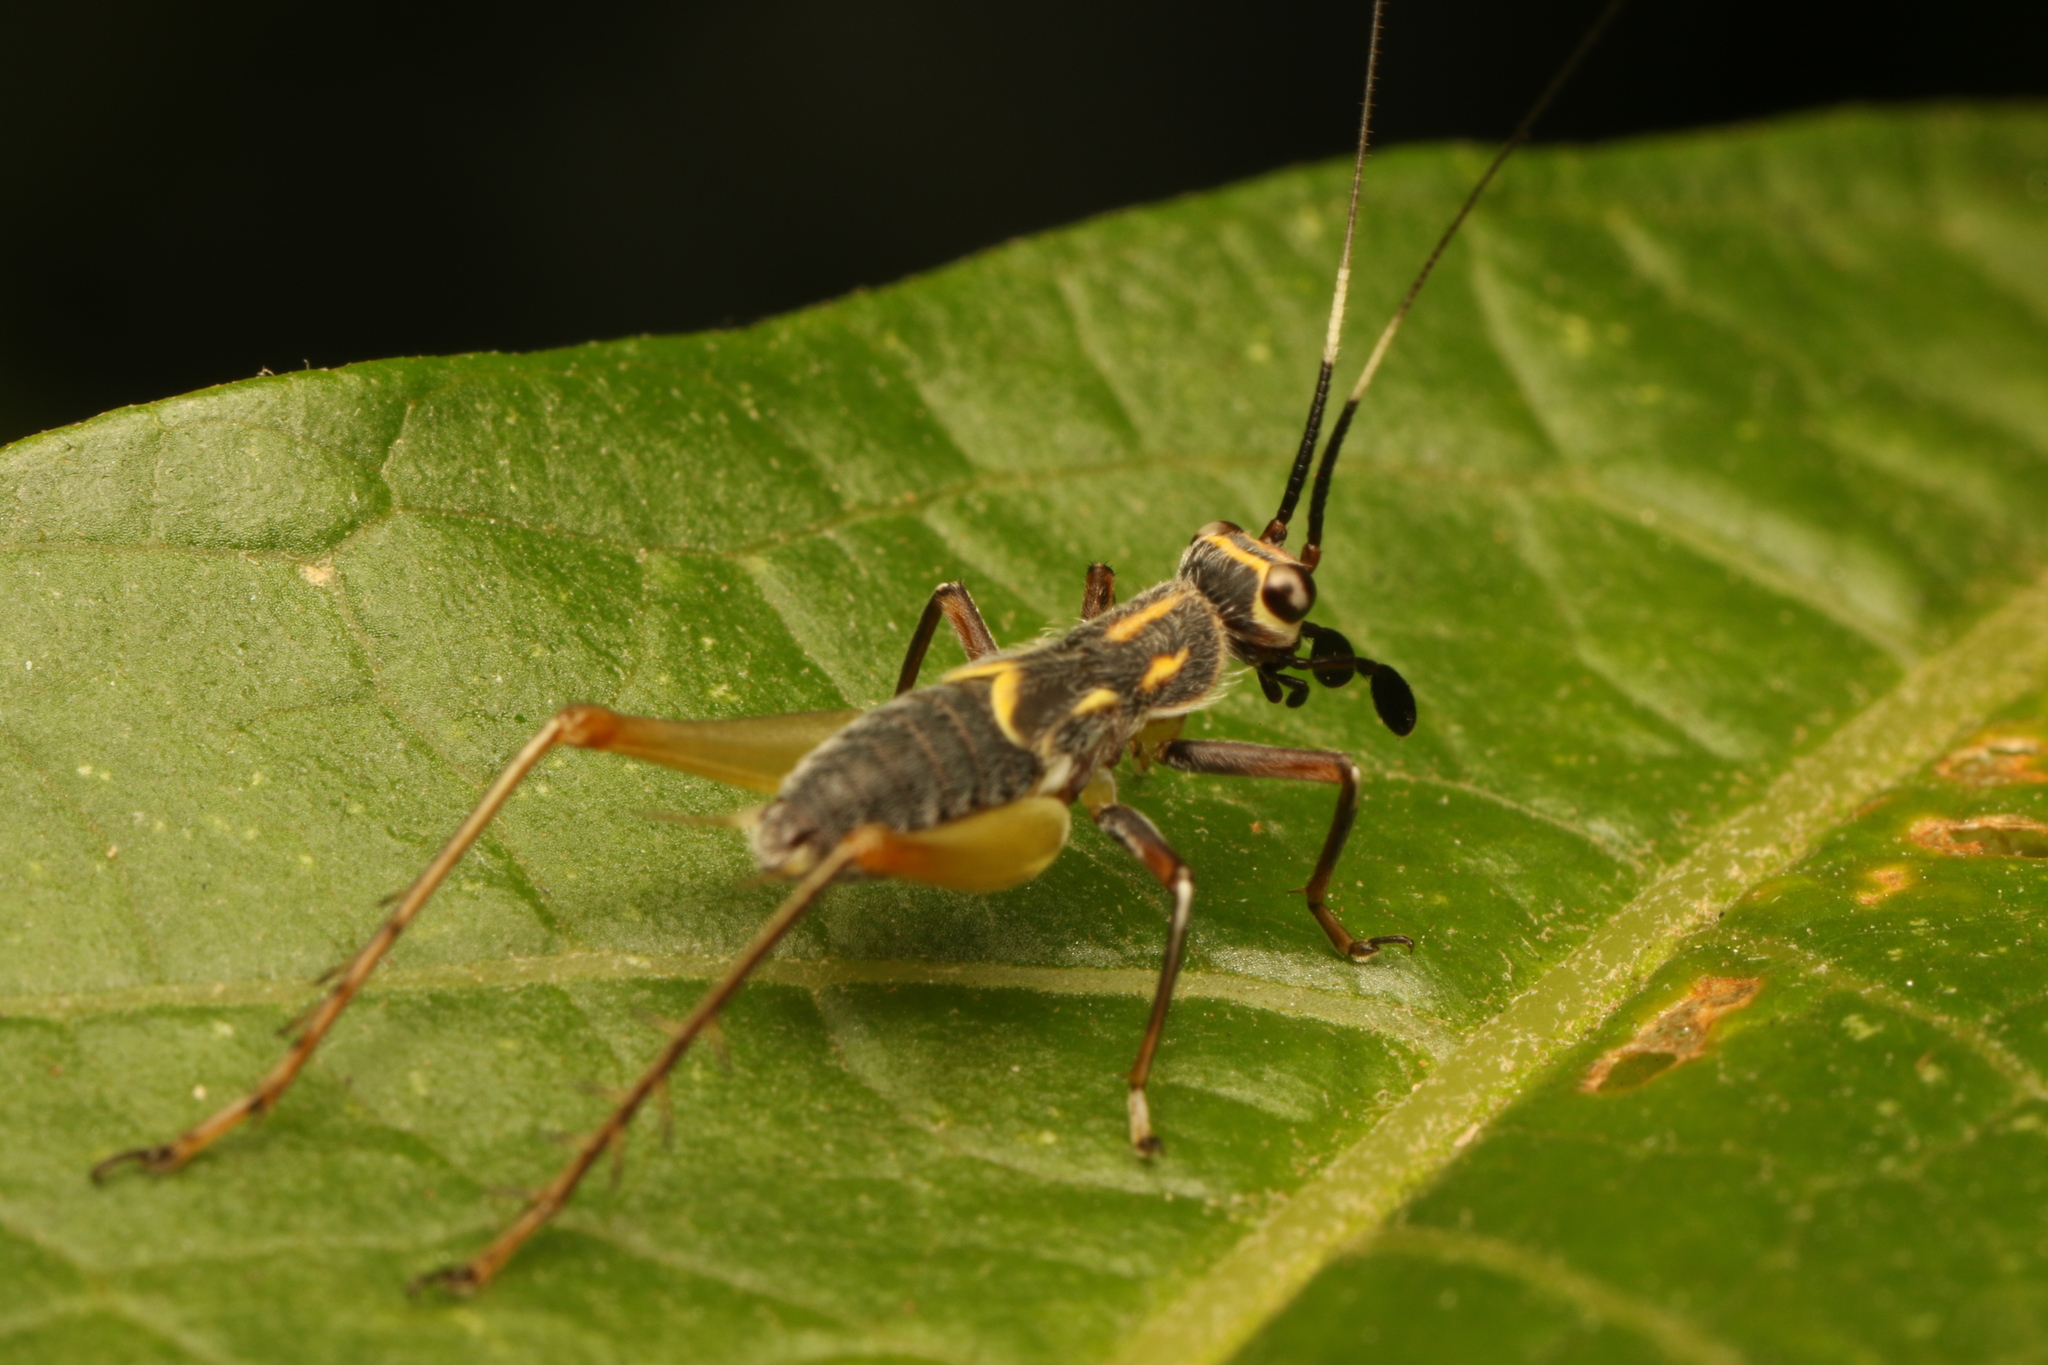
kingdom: Animalia
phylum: Arthropoda
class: Insecta
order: Orthoptera
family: Trigonidiidae
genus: Phylloscyrtus
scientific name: Phylloscyrtus amoenus
